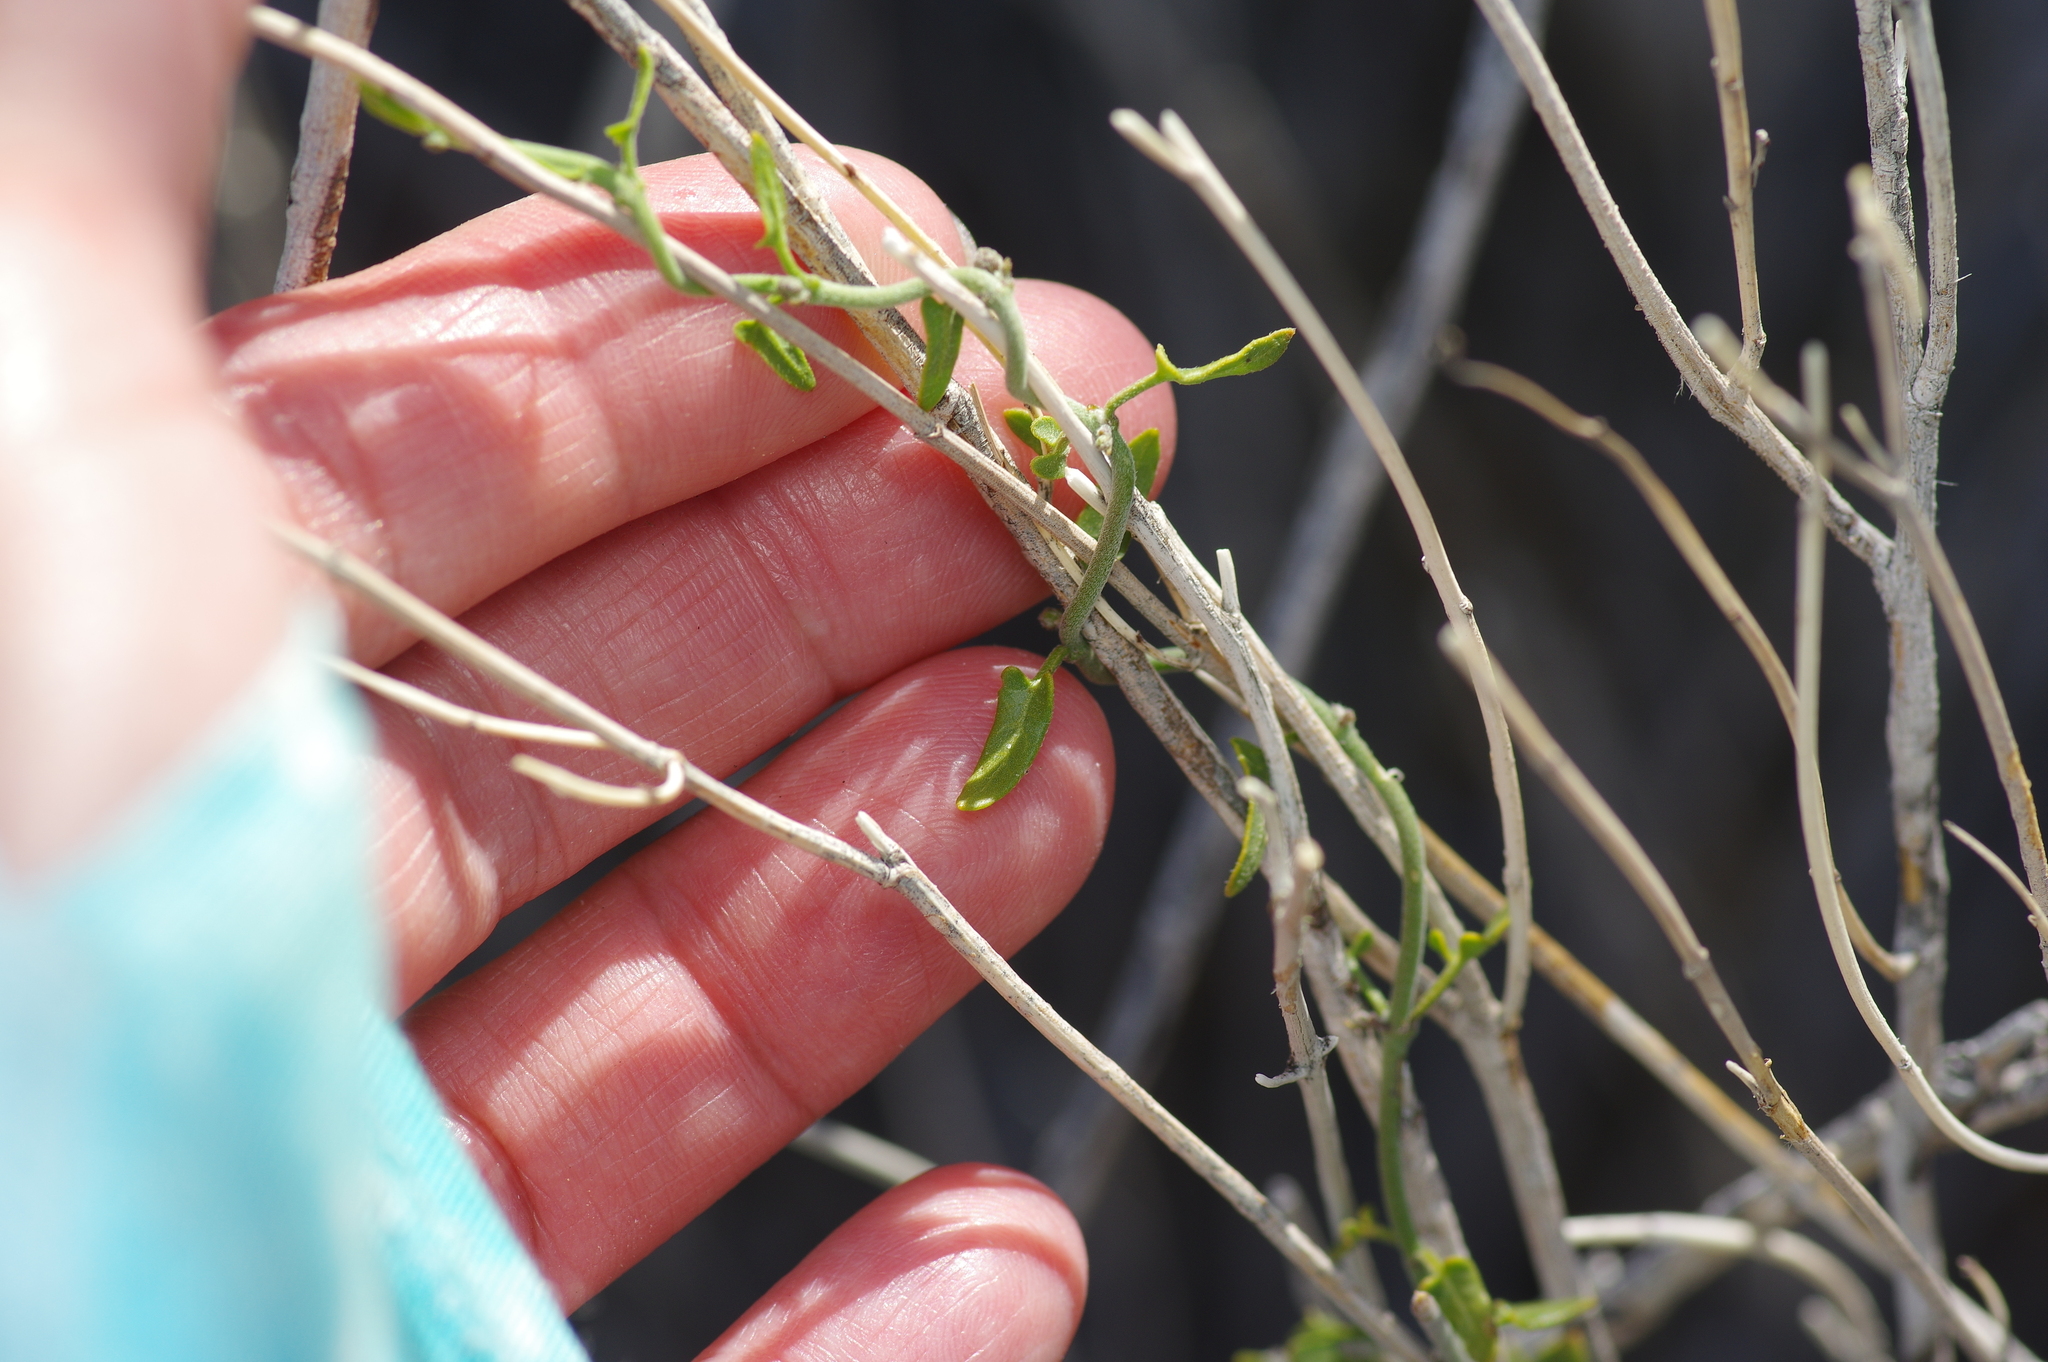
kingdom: Plantae
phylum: Tracheophyta
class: Magnoliopsida
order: Gentianales
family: Apocynaceae
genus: Matelea
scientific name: Matelea parvifolia
